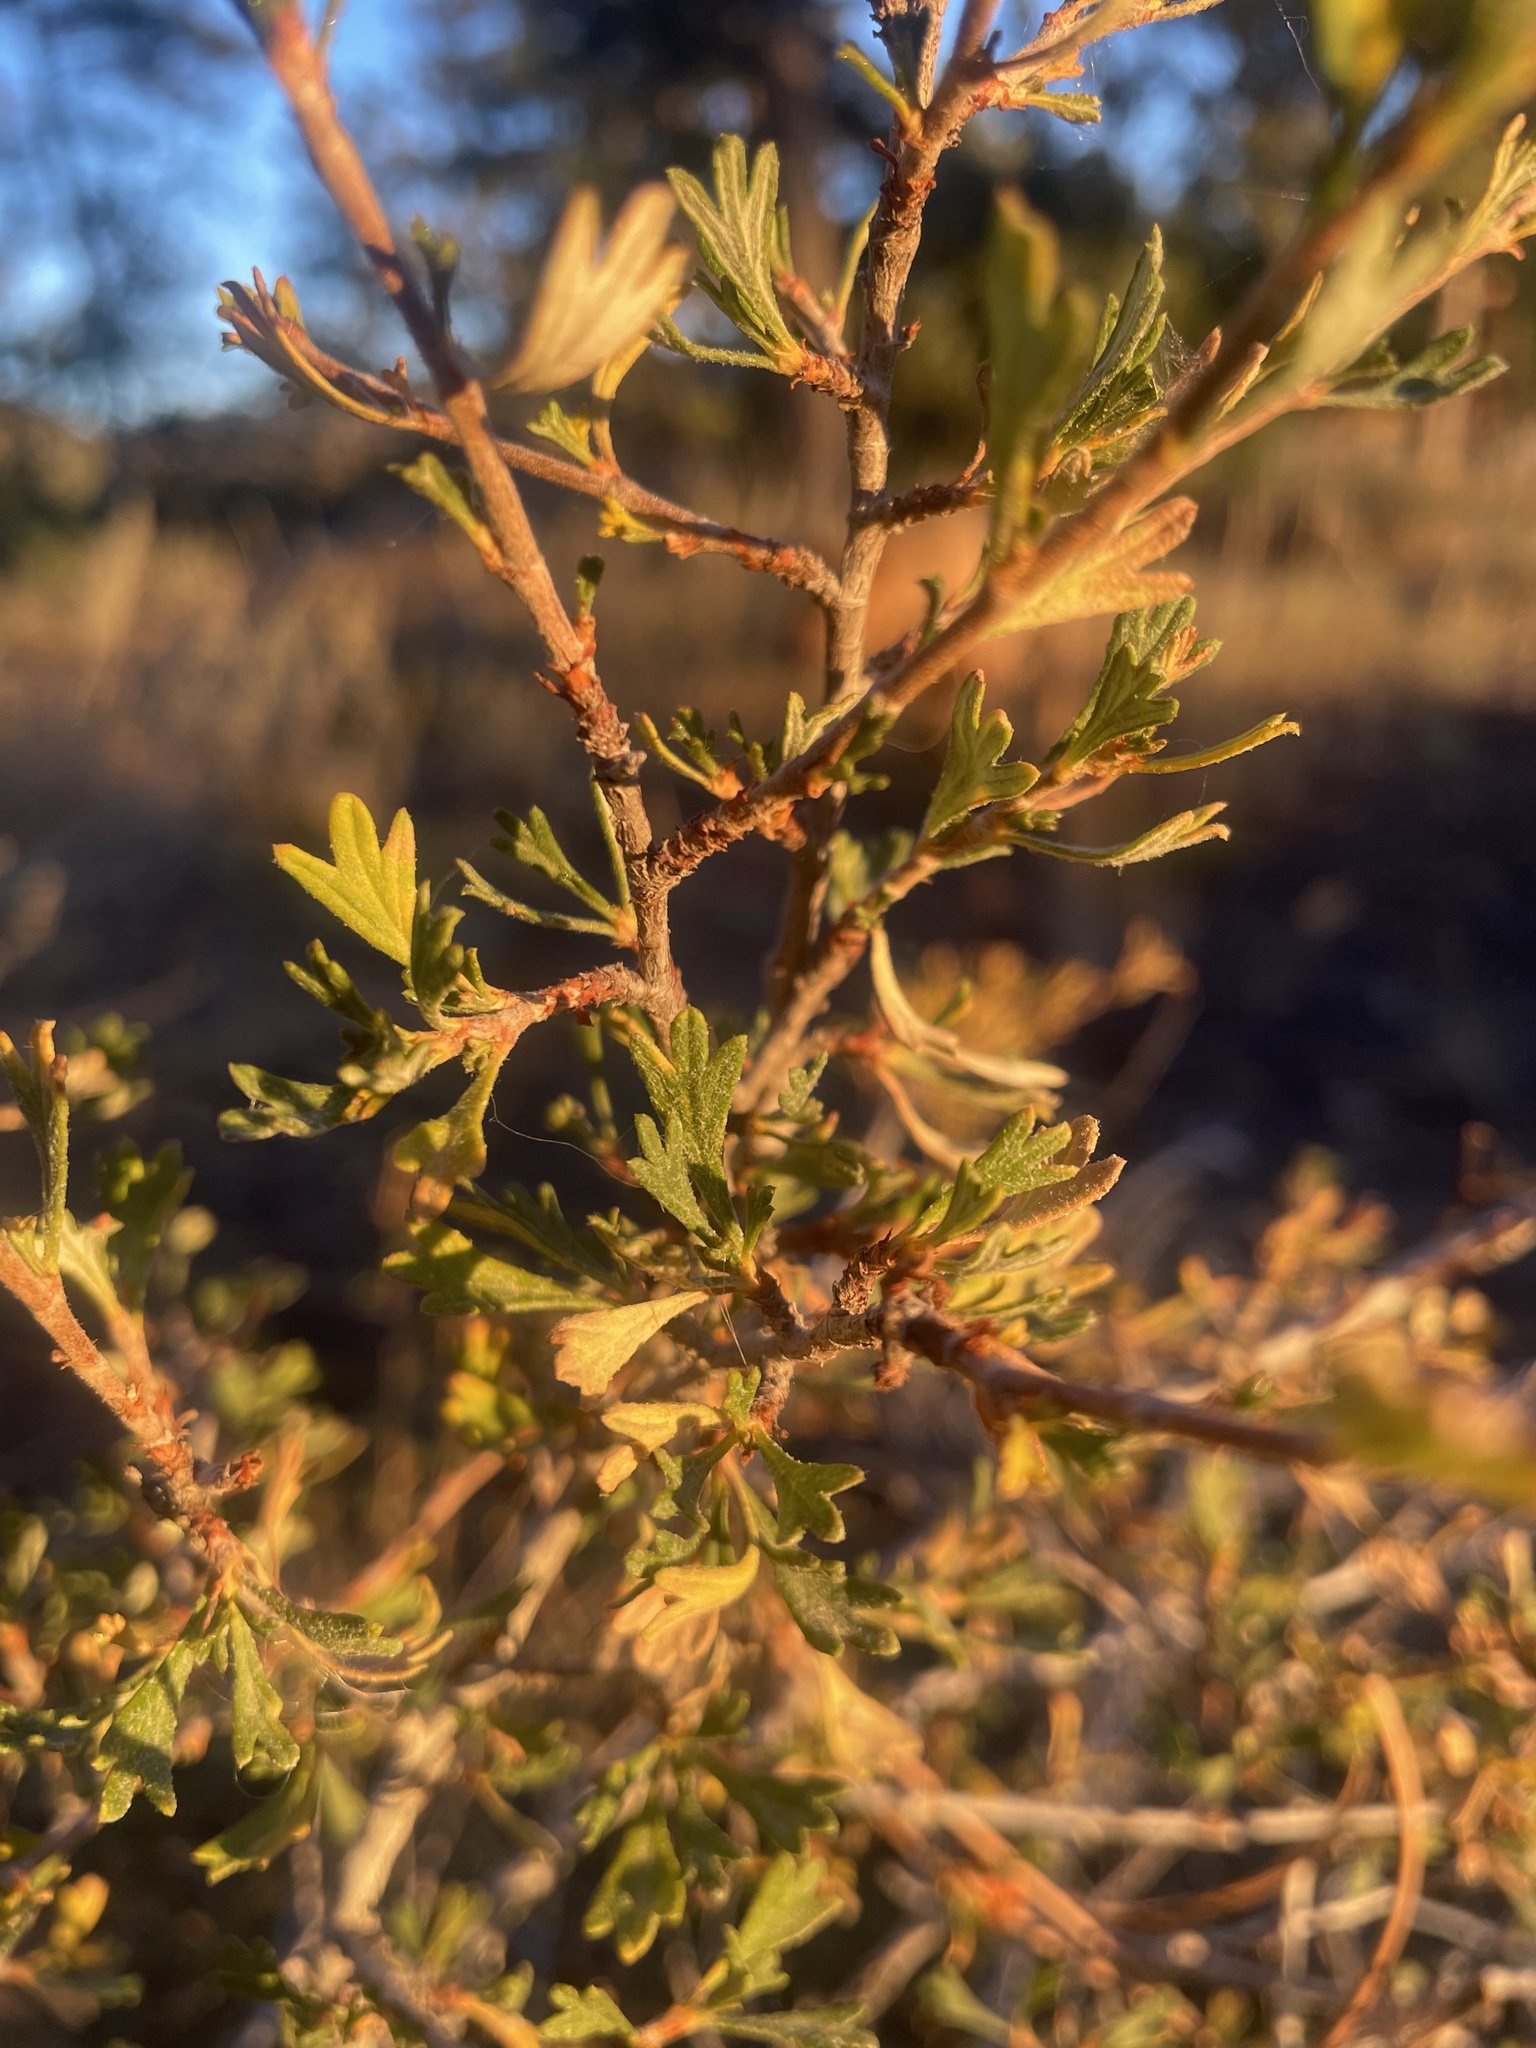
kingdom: Plantae
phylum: Tracheophyta
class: Magnoliopsida
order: Rosales
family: Rosaceae
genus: Purshia
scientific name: Purshia tridentata
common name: Antelope bitterbrush
